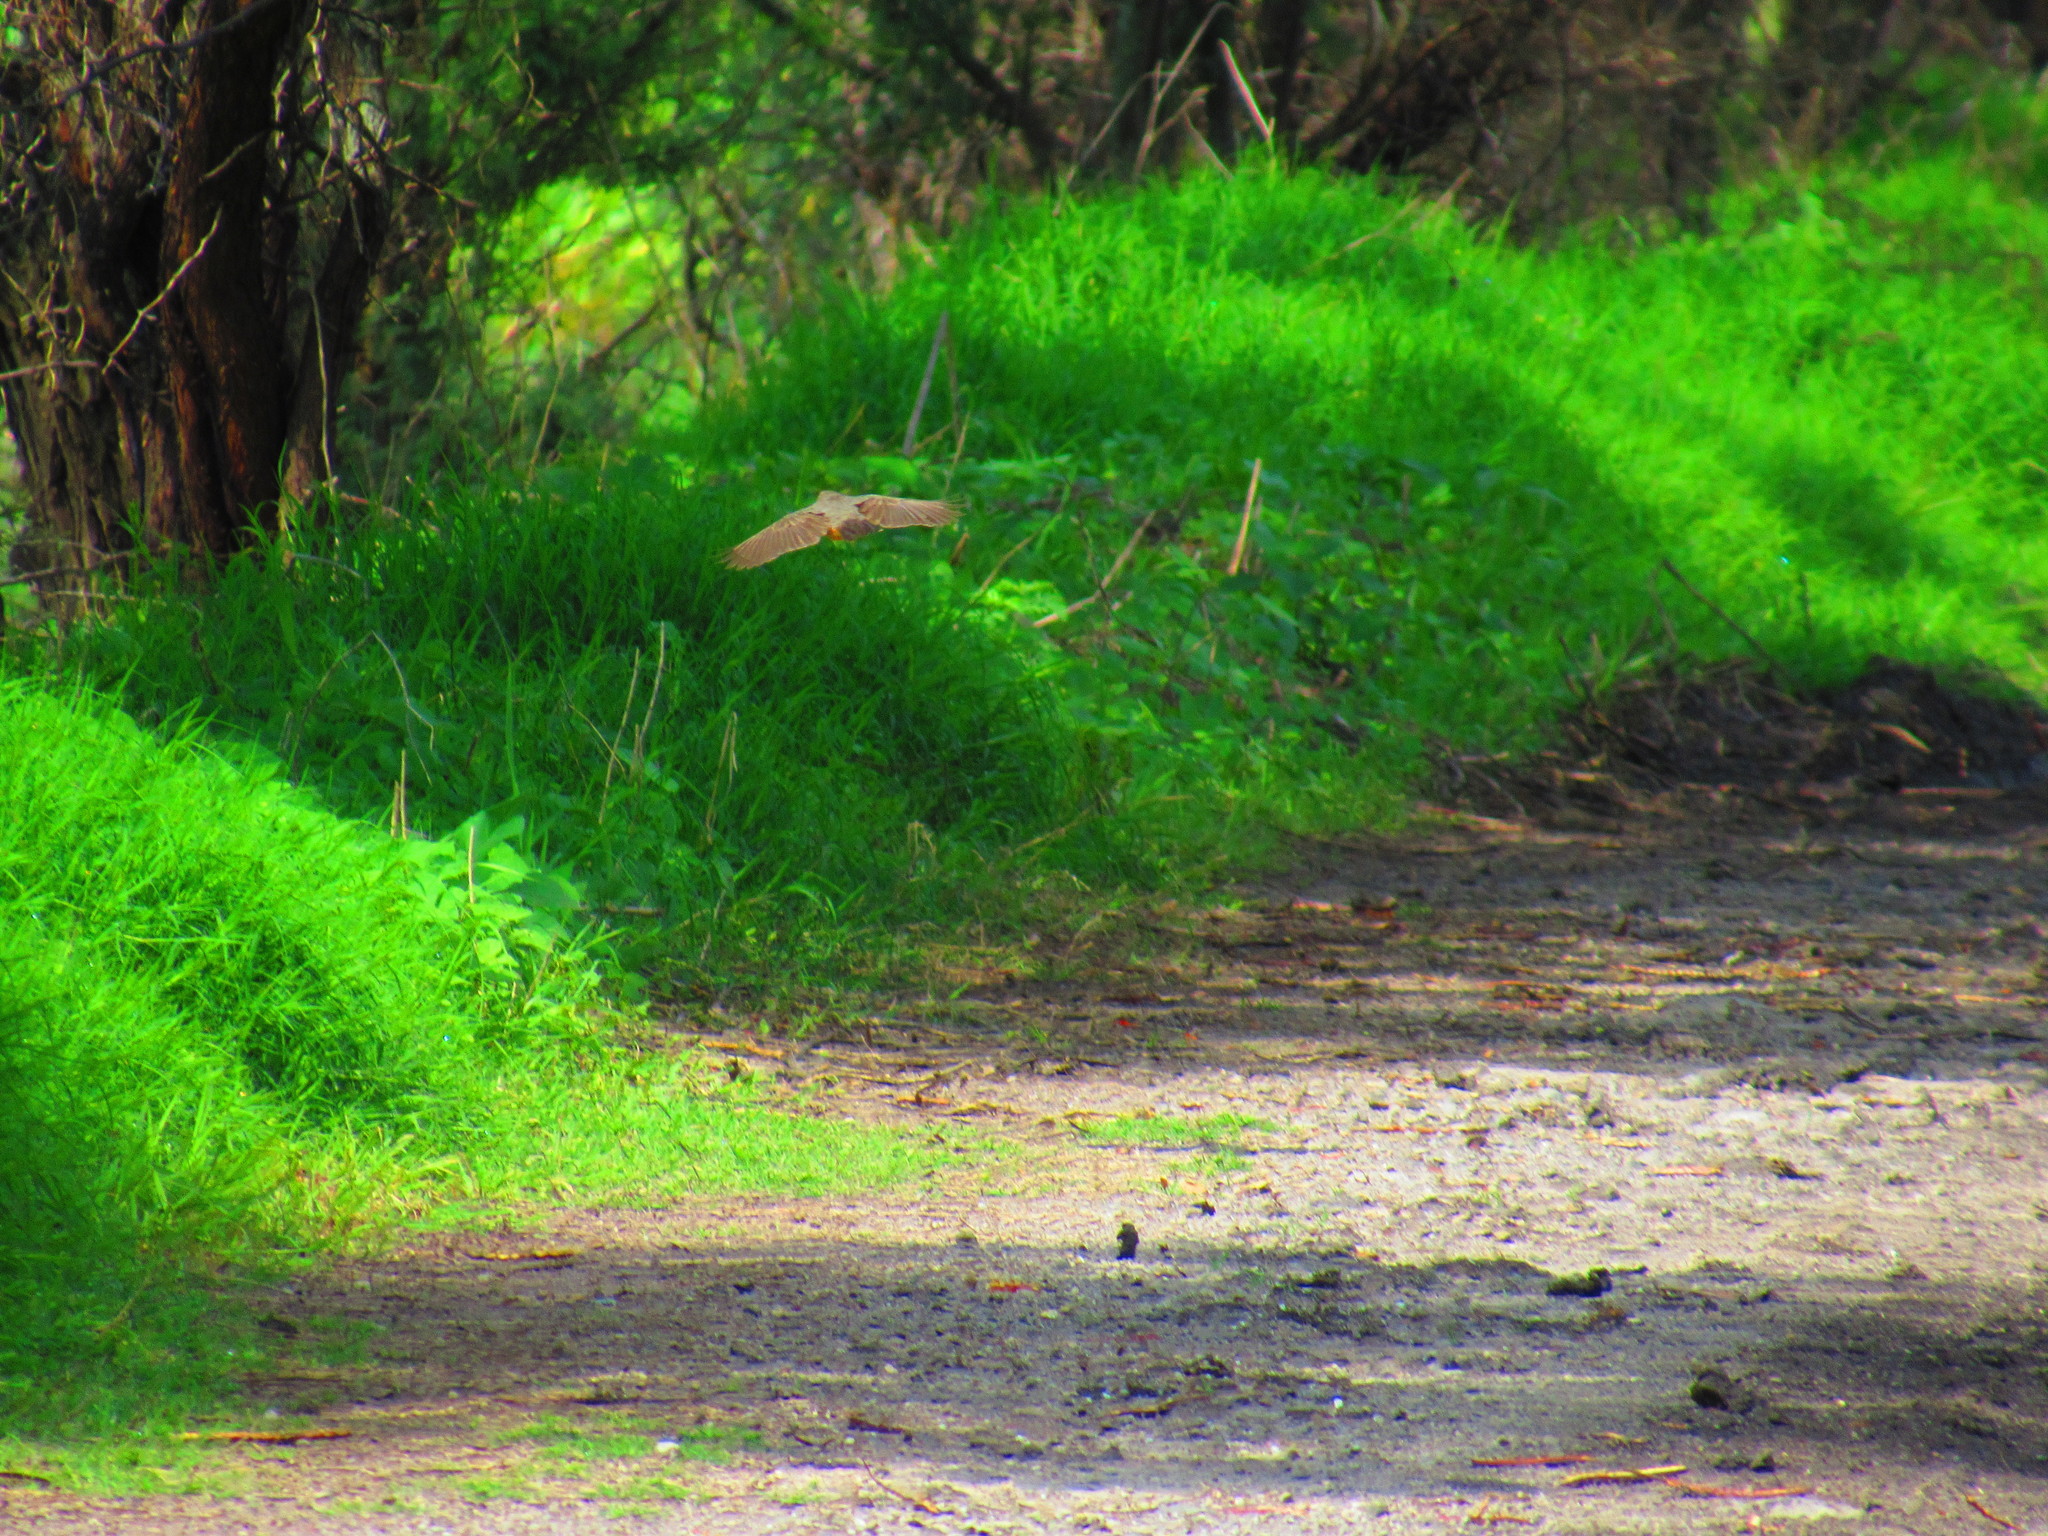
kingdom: Animalia
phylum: Chordata
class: Aves
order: Passeriformes
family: Passerellidae
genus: Melozone
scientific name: Melozone fusca
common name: Canyon towhee
